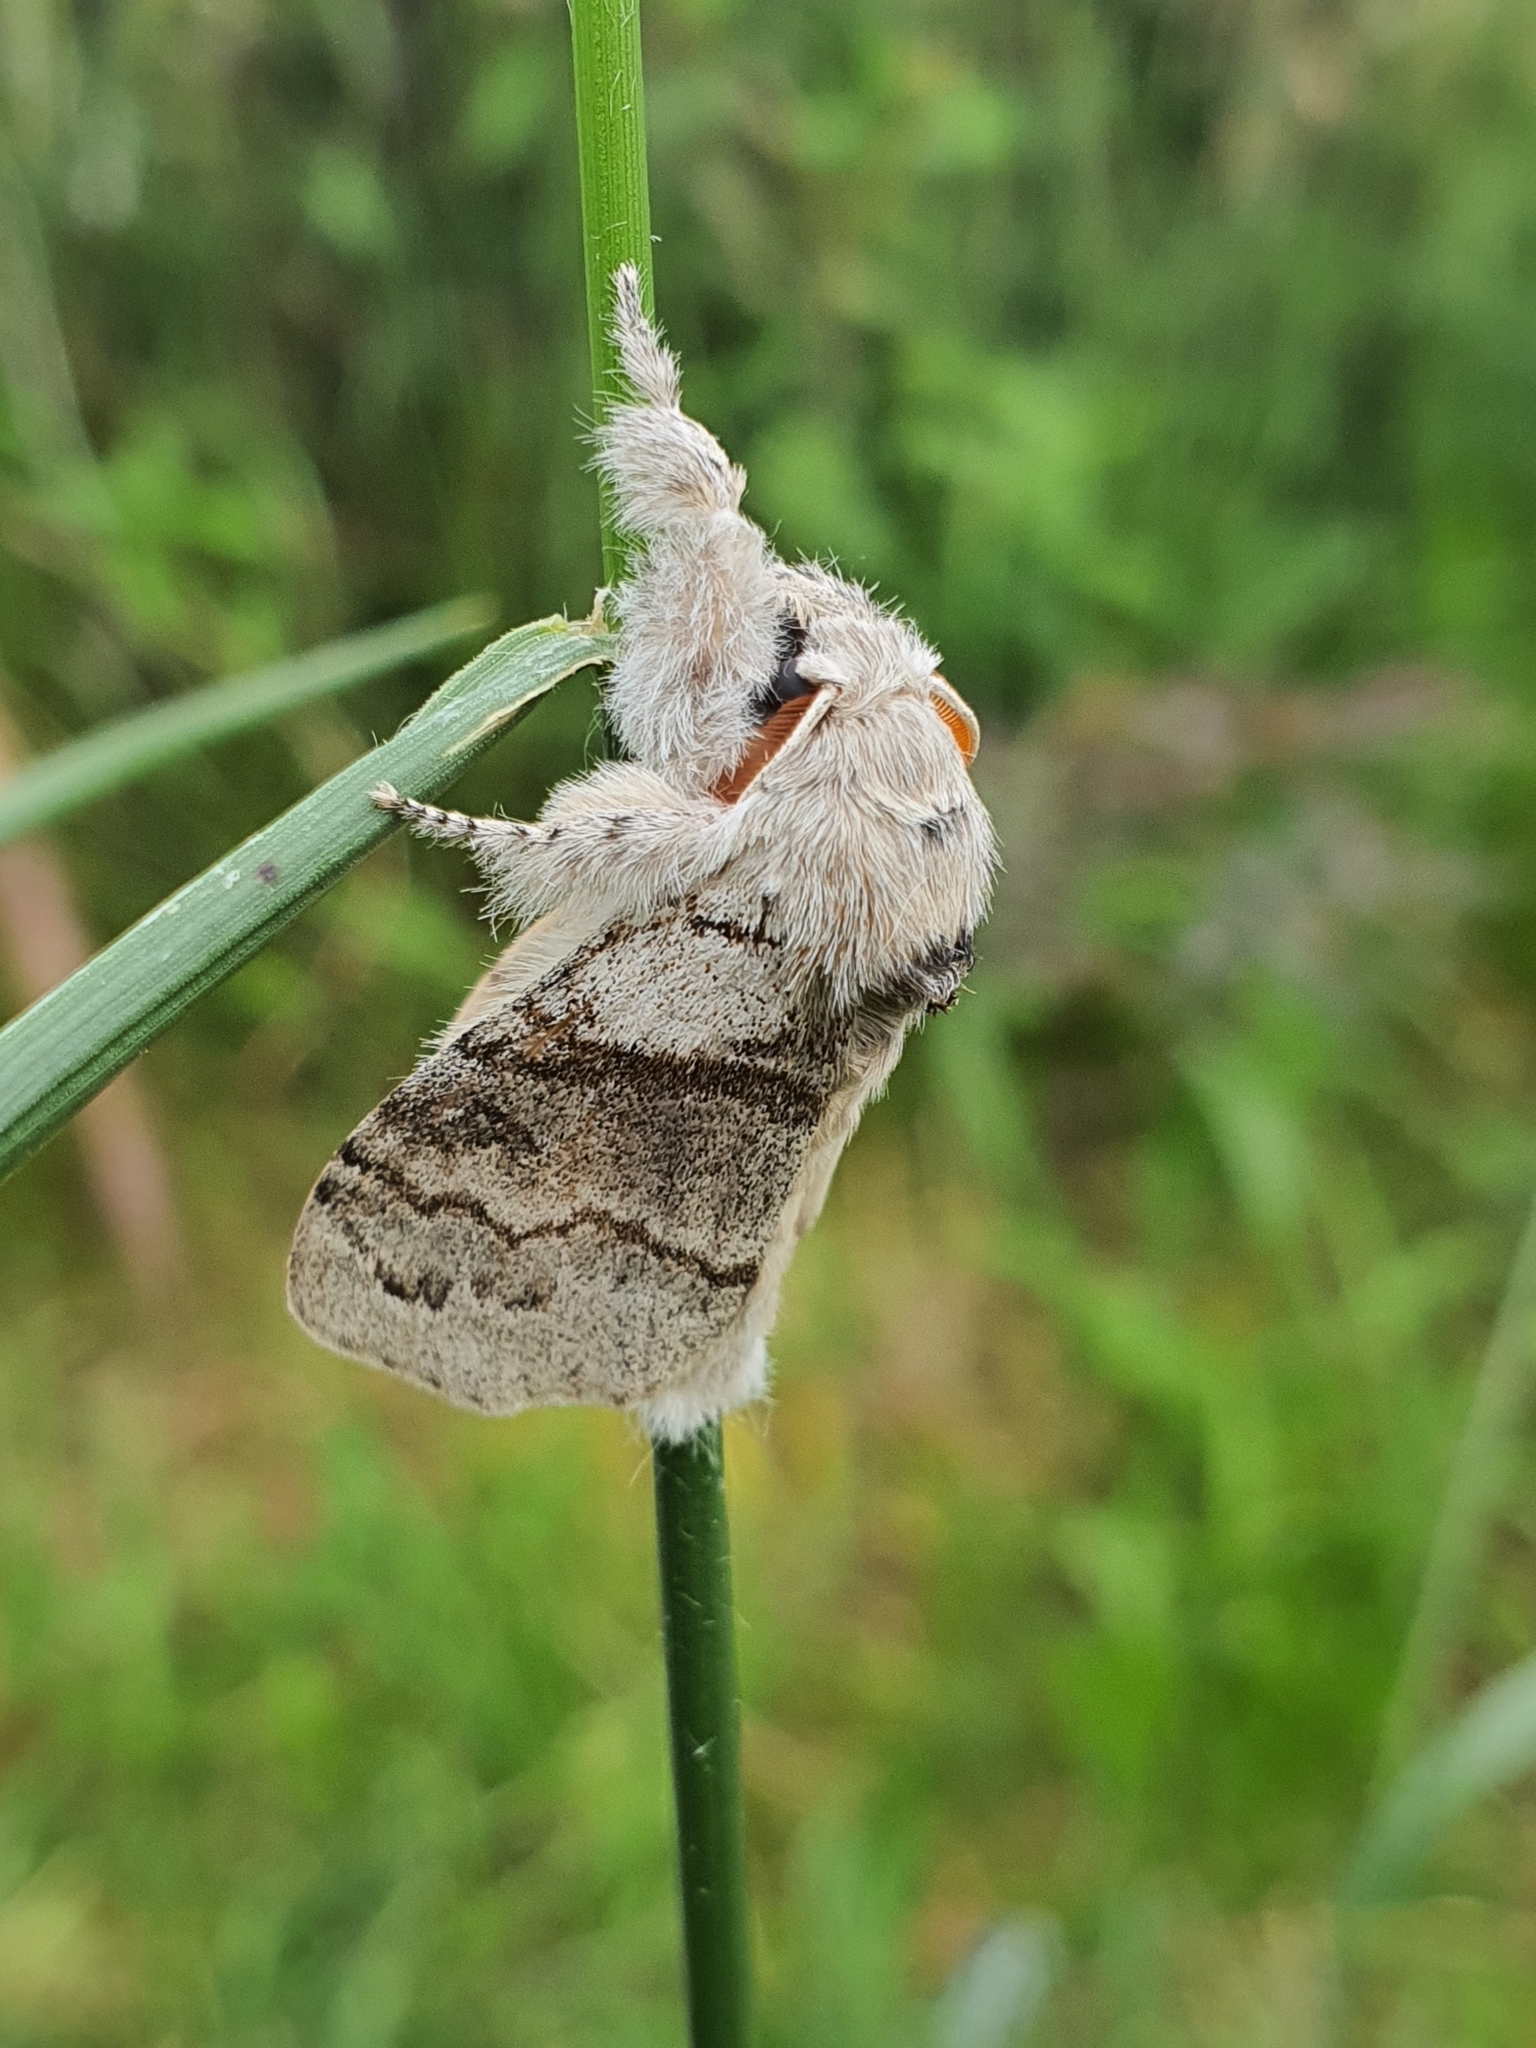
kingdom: Animalia
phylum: Arthropoda
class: Insecta
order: Lepidoptera
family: Erebidae
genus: Calliteara
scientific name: Calliteara pudibunda
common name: Pale tussock
